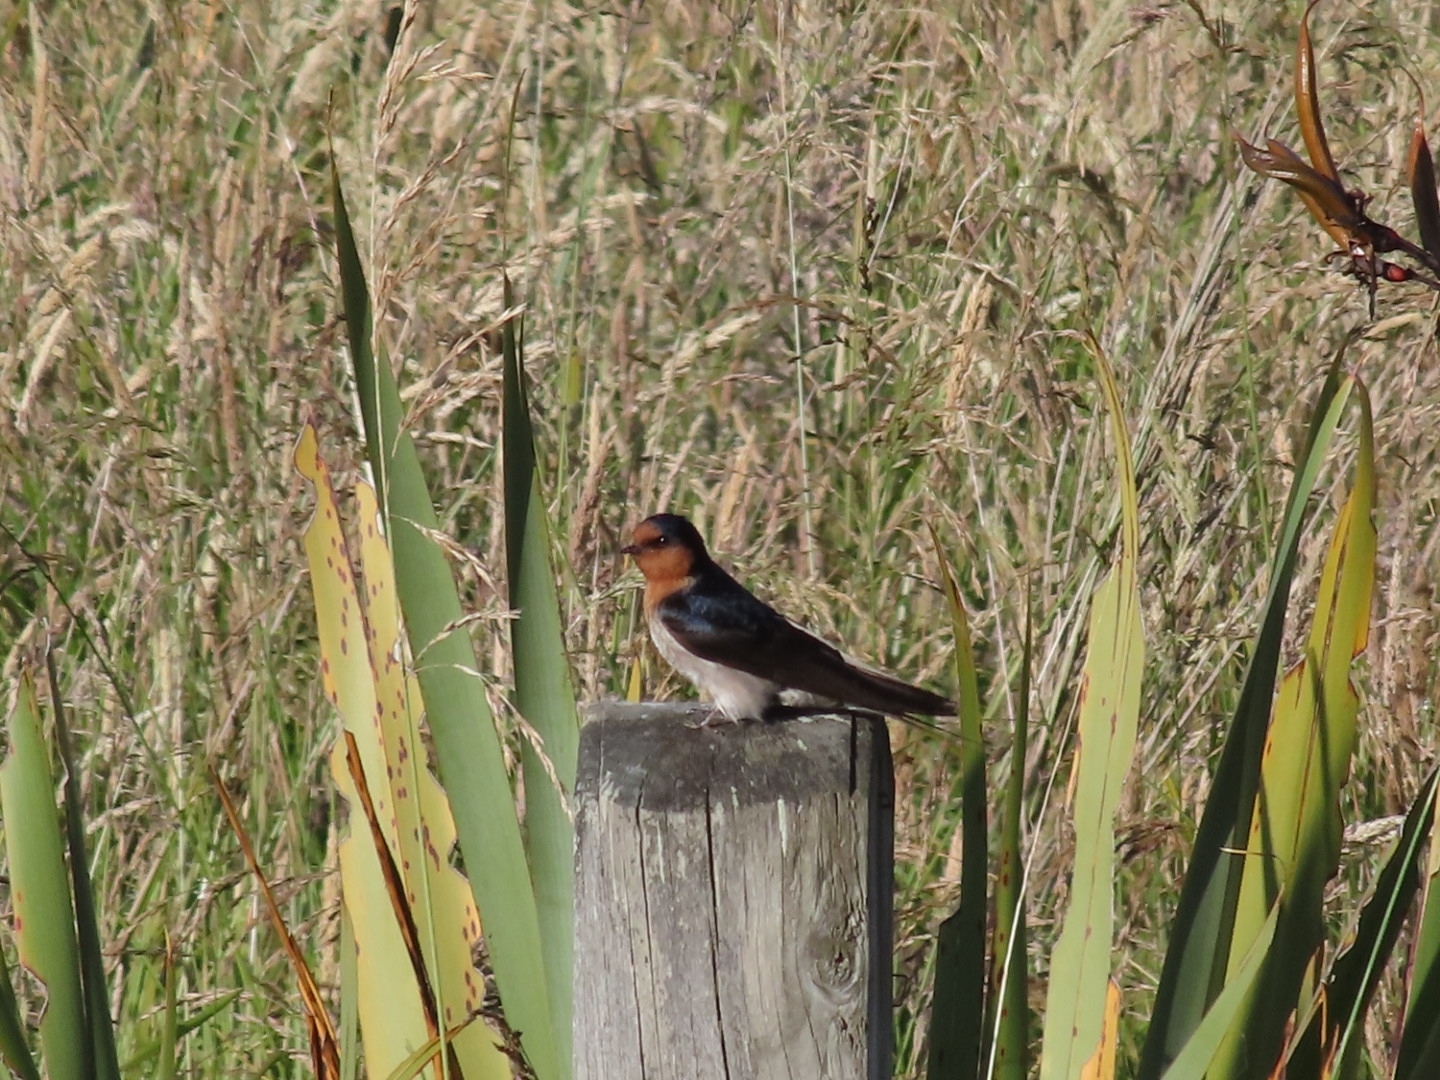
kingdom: Animalia
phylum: Chordata
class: Aves
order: Passeriformes
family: Hirundinidae
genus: Hirundo
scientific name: Hirundo neoxena
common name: Welcome swallow
